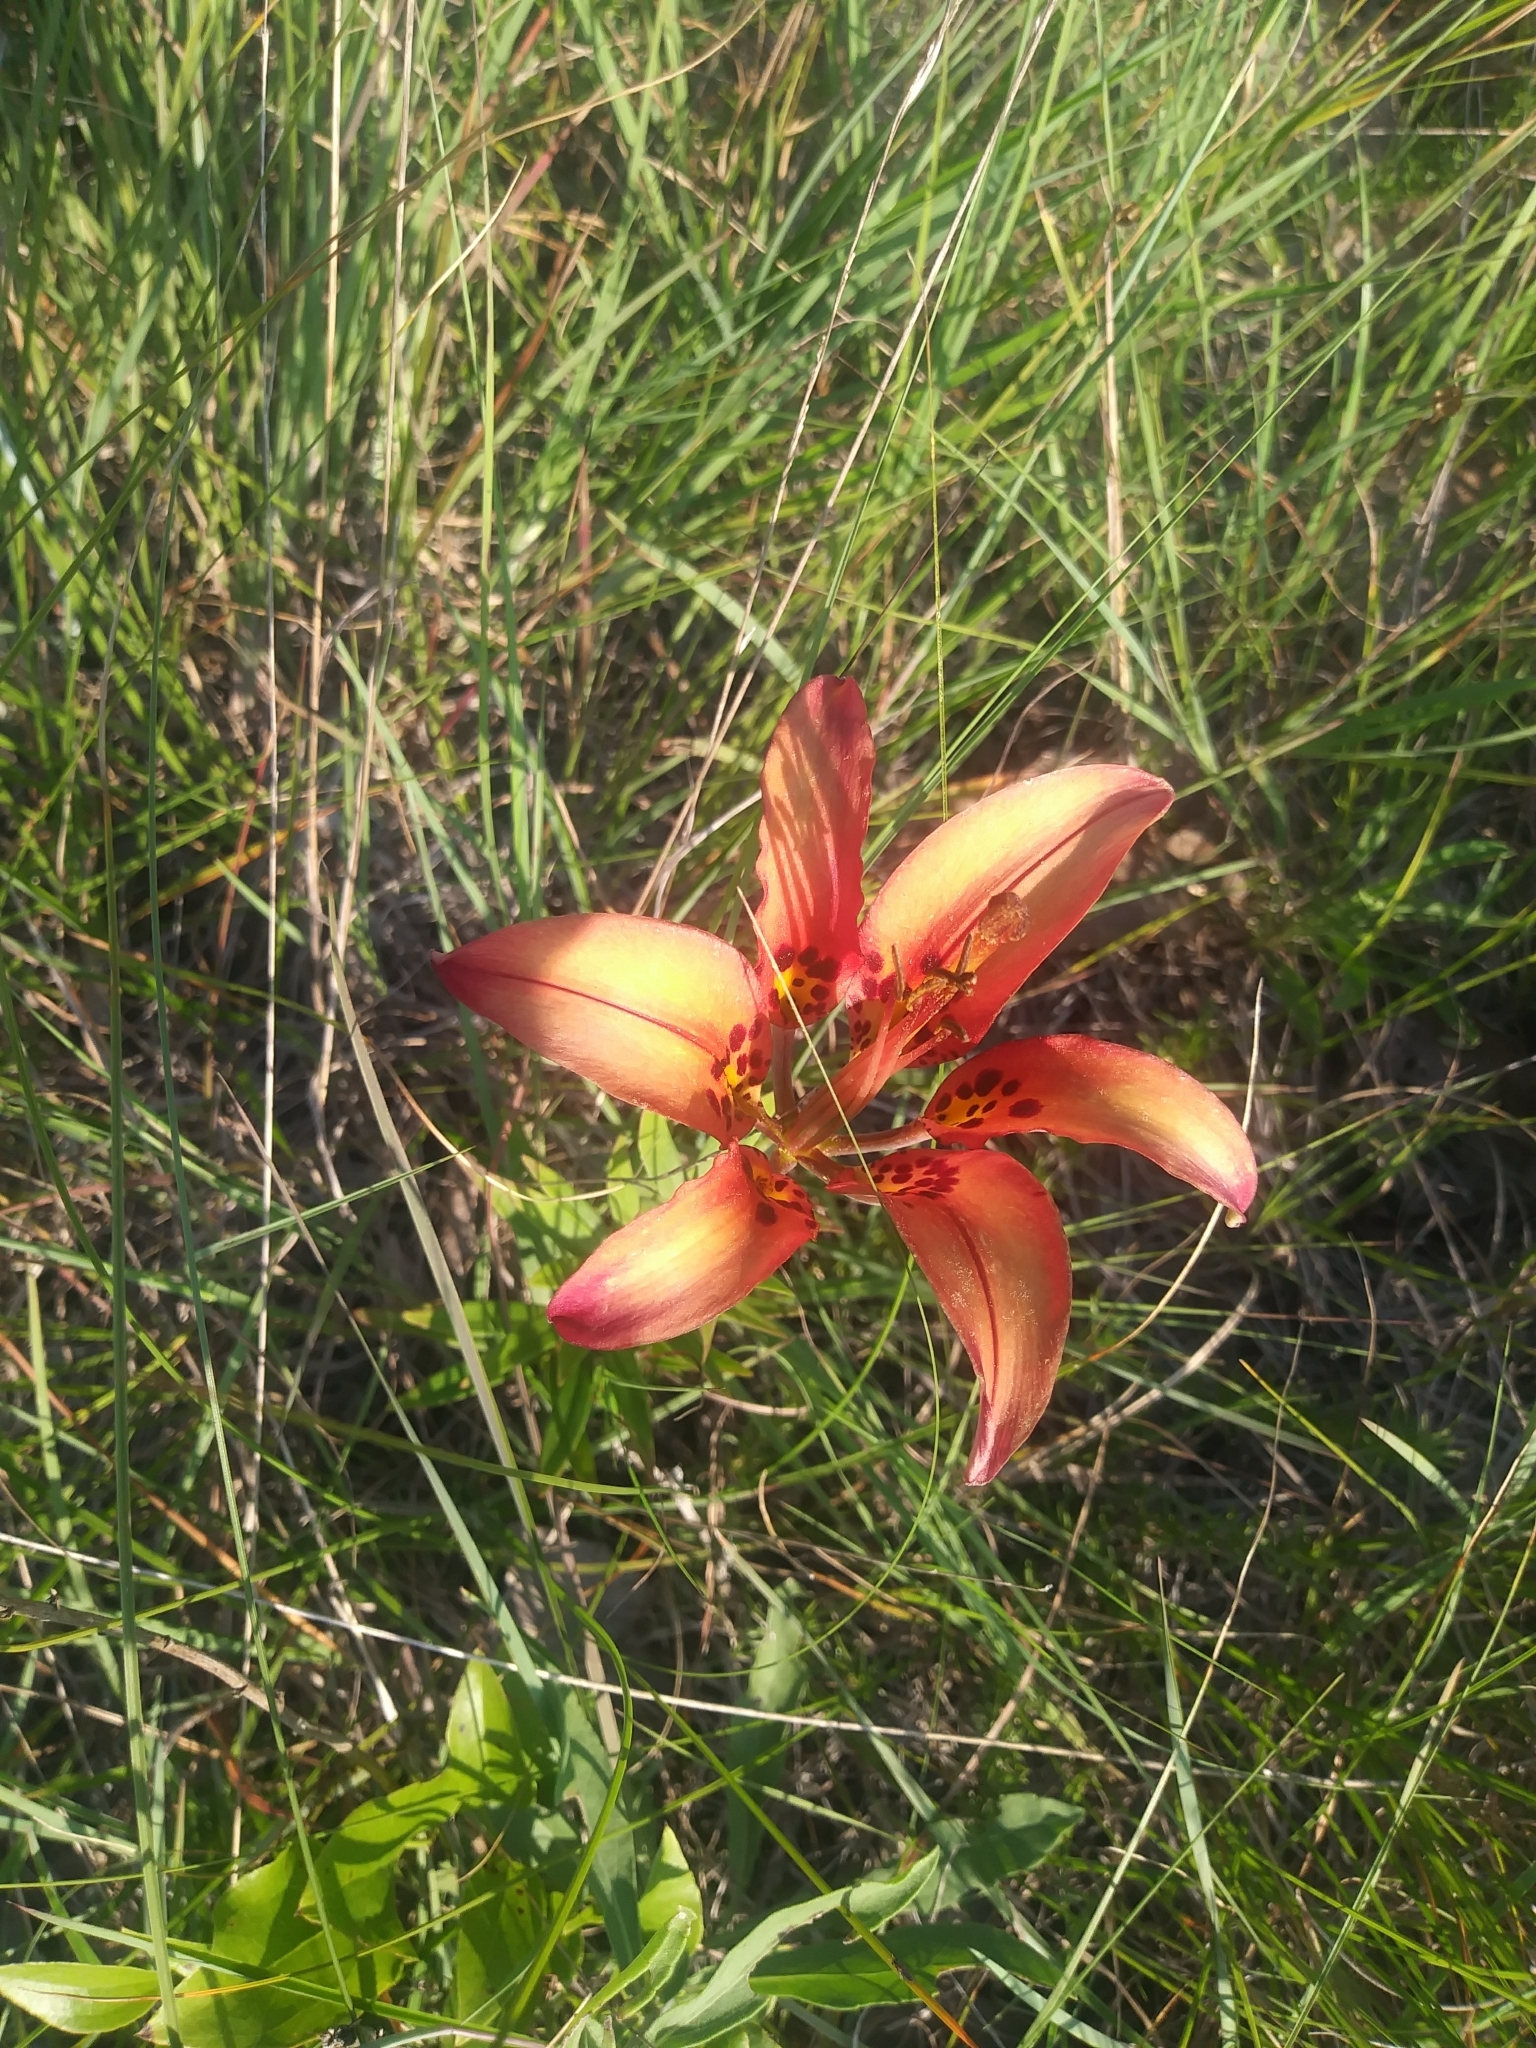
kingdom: Plantae
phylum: Tracheophyta
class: Liliopsida
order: Liliales
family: Liliaceae
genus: Lilium
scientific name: Lilium philadelphicum
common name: Red lily
